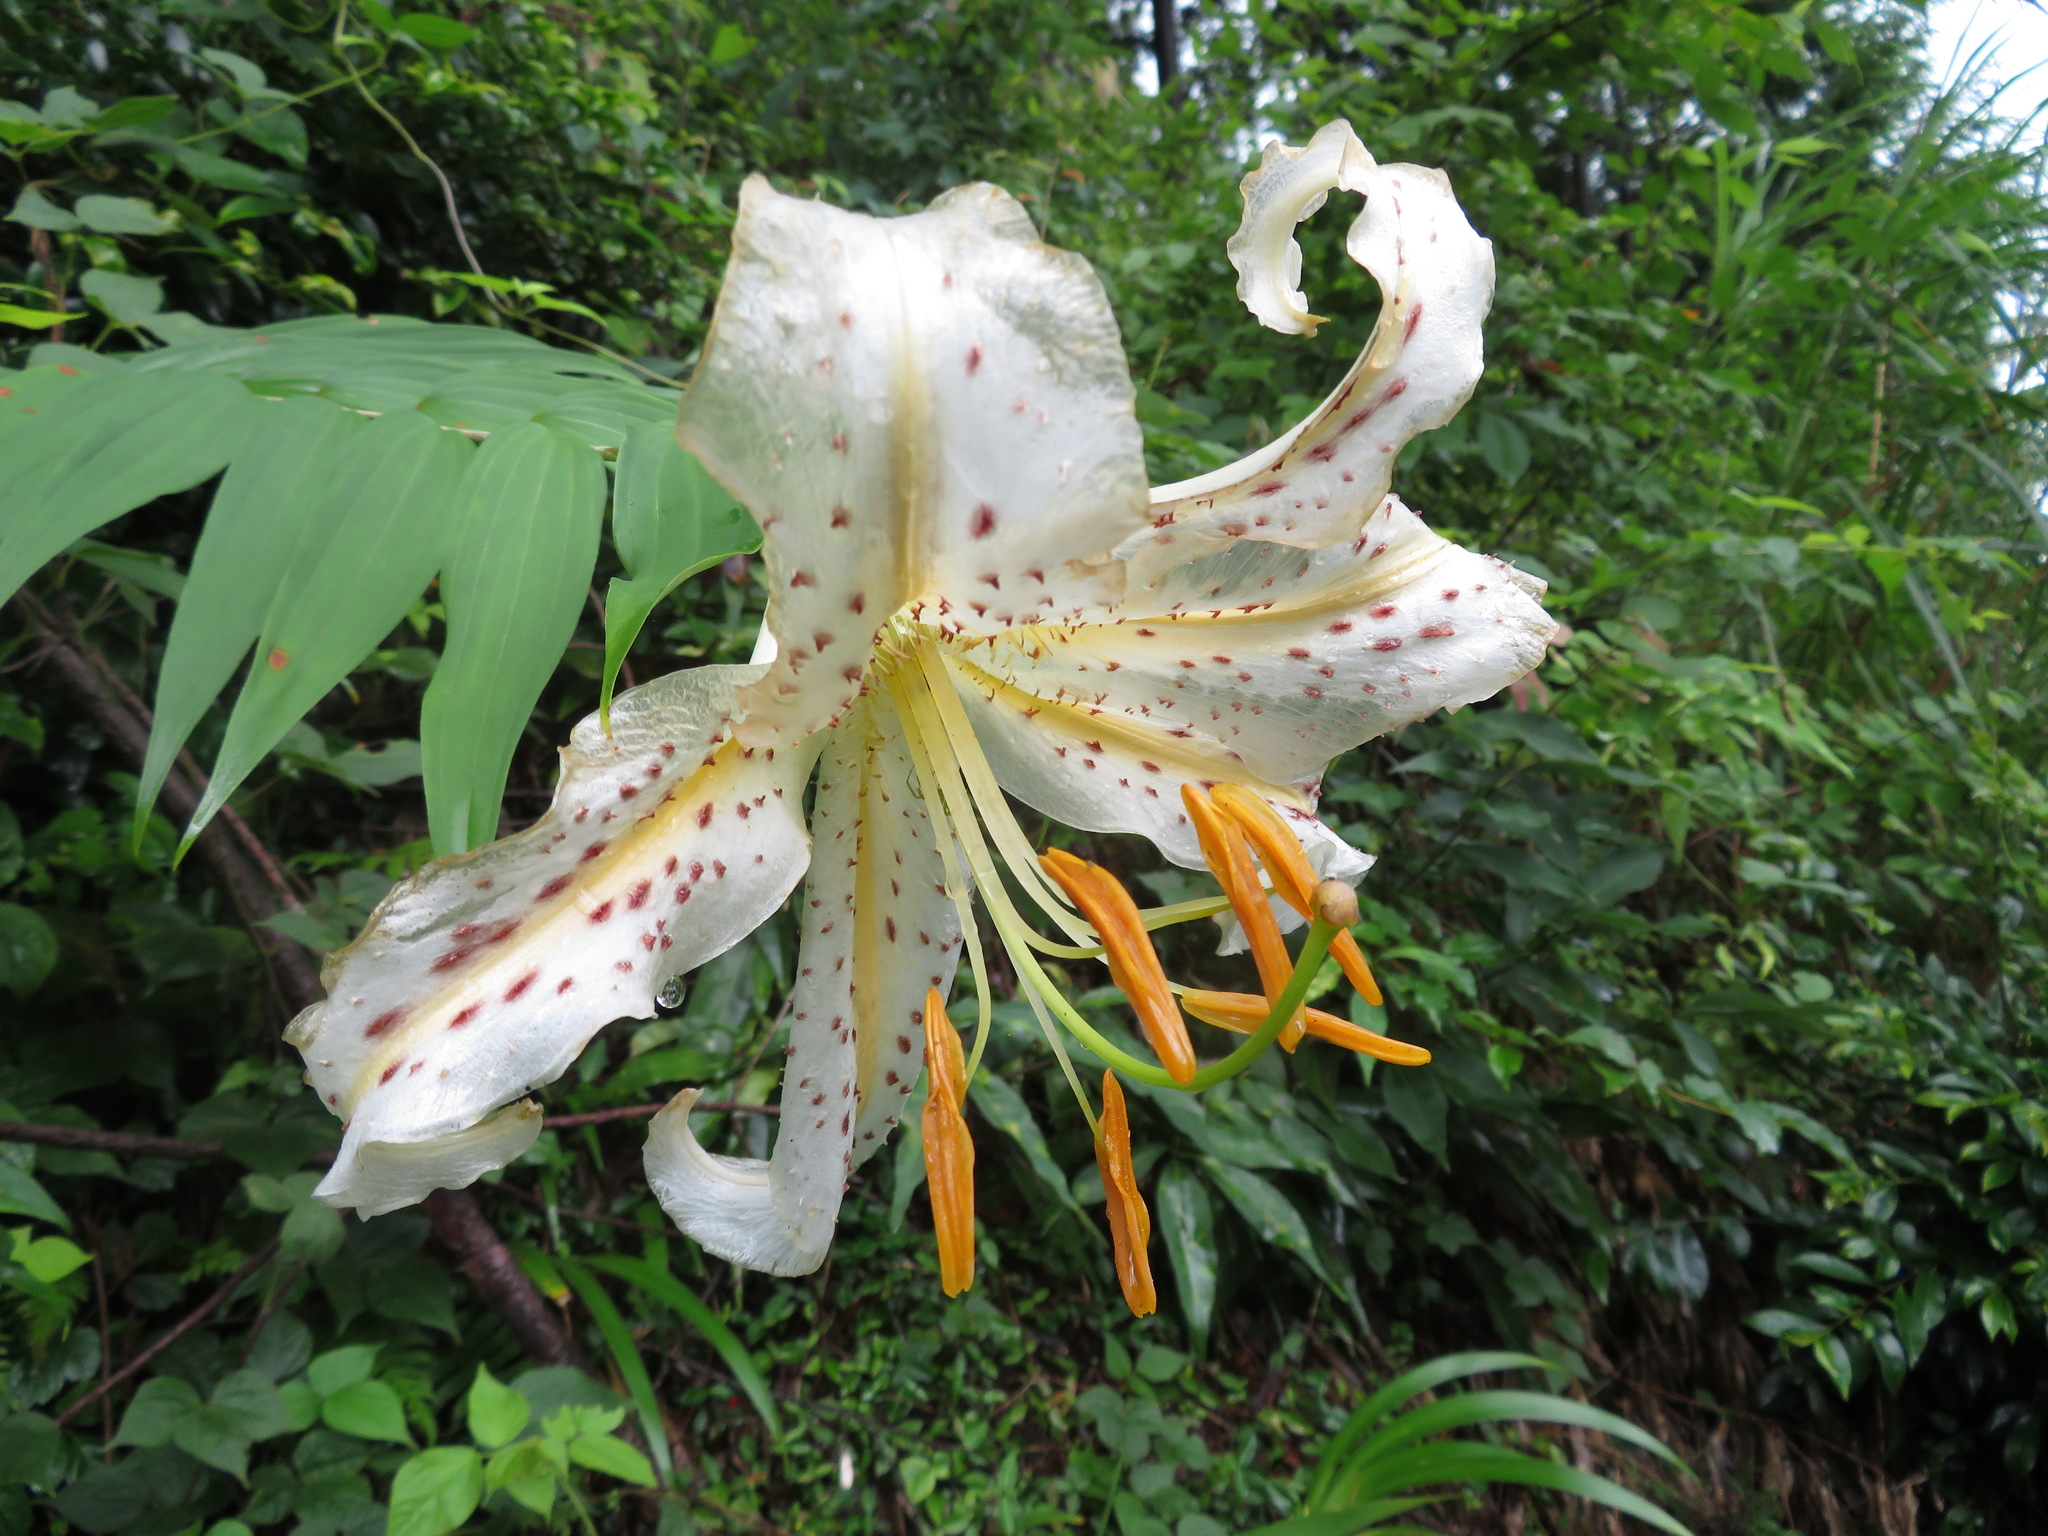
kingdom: Plantae
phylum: Tracheophyta
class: Liliopsida
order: Liliales
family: Liliaceae
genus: Lilium
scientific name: Lilium auratum
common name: Golden-ray lily
